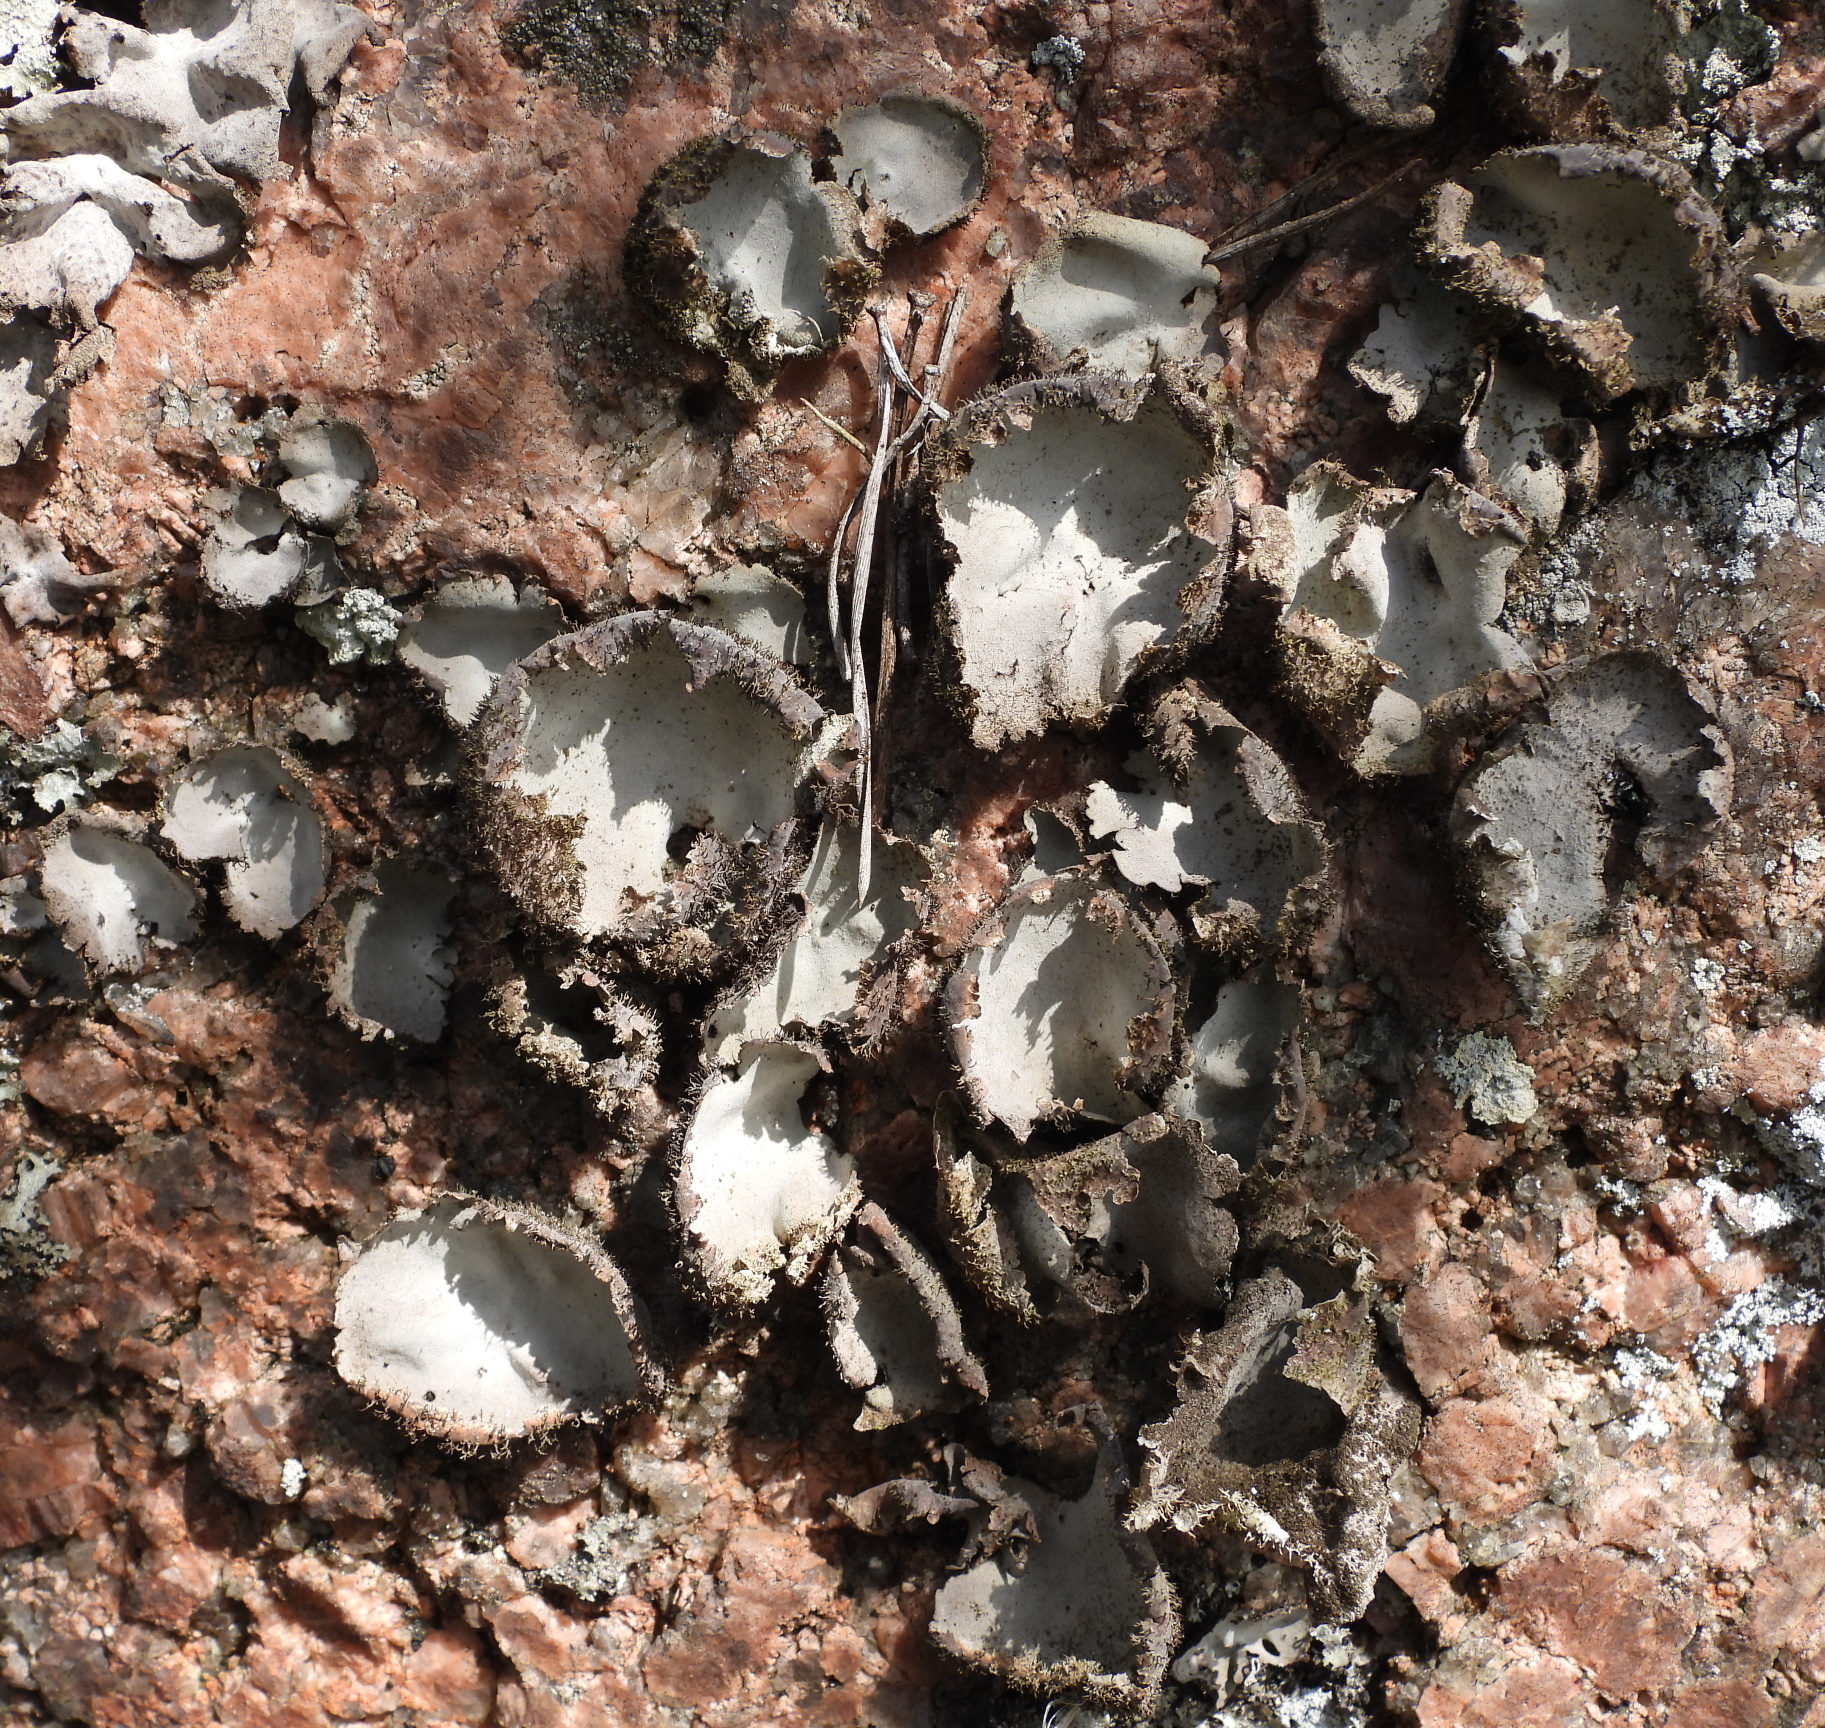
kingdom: Fungi
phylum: Ascomycota
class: Lecanoromycetes
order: Umbilicariales
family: Umbilicariaceae
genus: Umbilicaria
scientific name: Umbilicaria hirsuta
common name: Granulating rocktripe lichen
